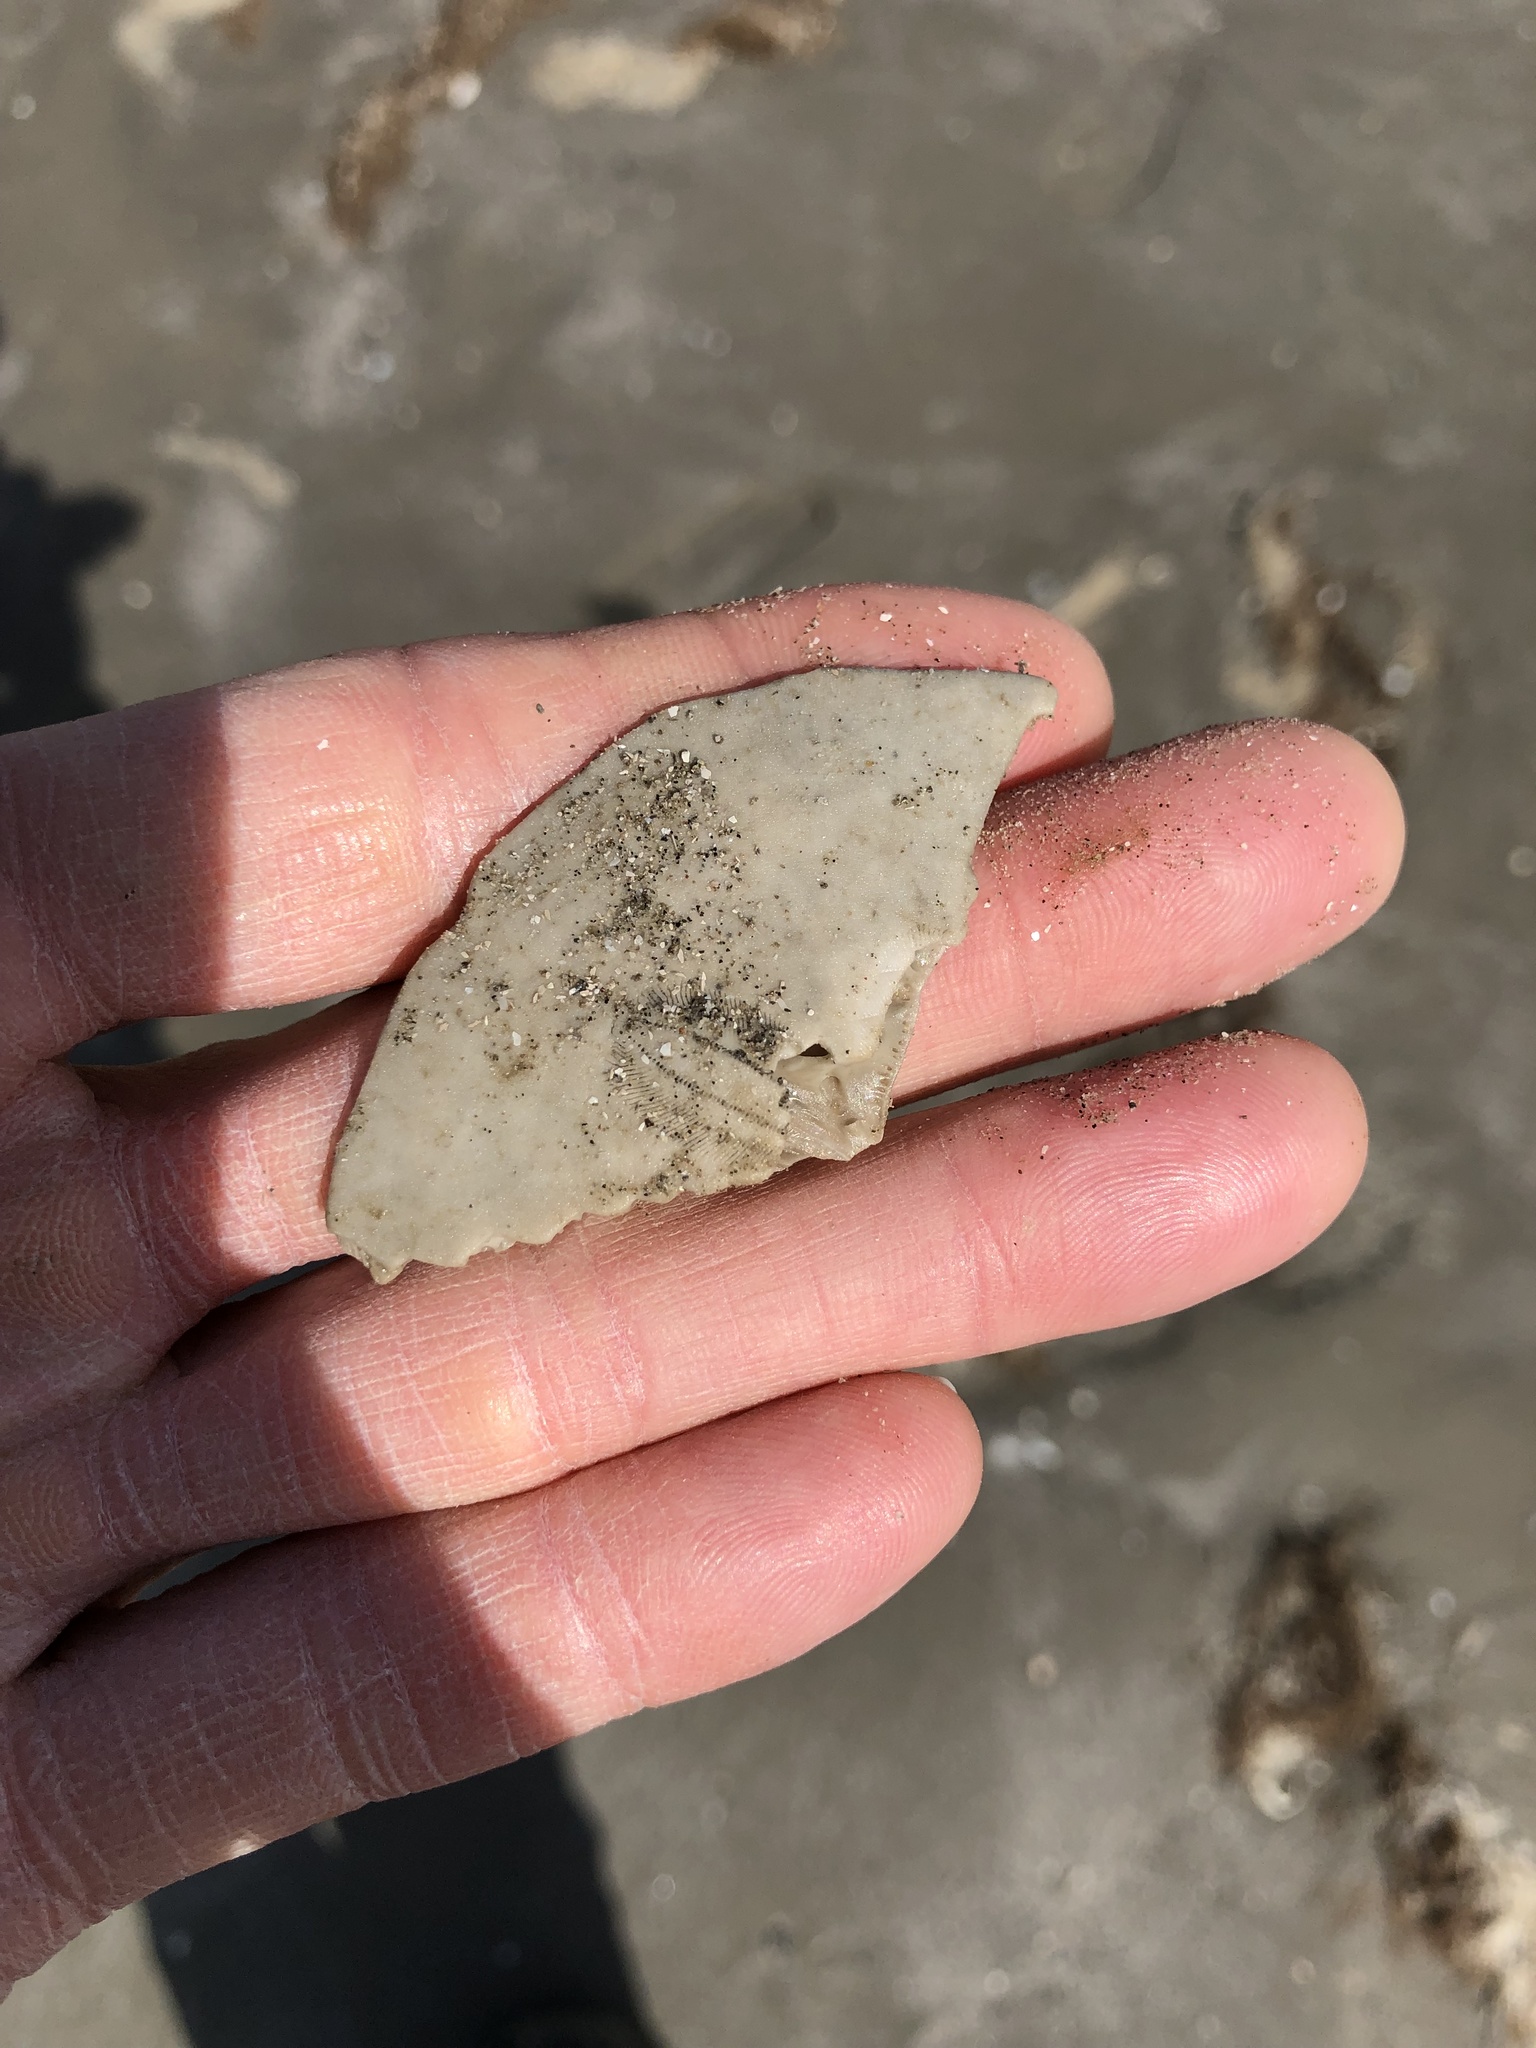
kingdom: Animalia
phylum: Echinodermata
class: Echinoidea
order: Echinolampadacea
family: Mellitidae
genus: Mellita
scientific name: Mellita quinquiesperforata
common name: Sand dollar
